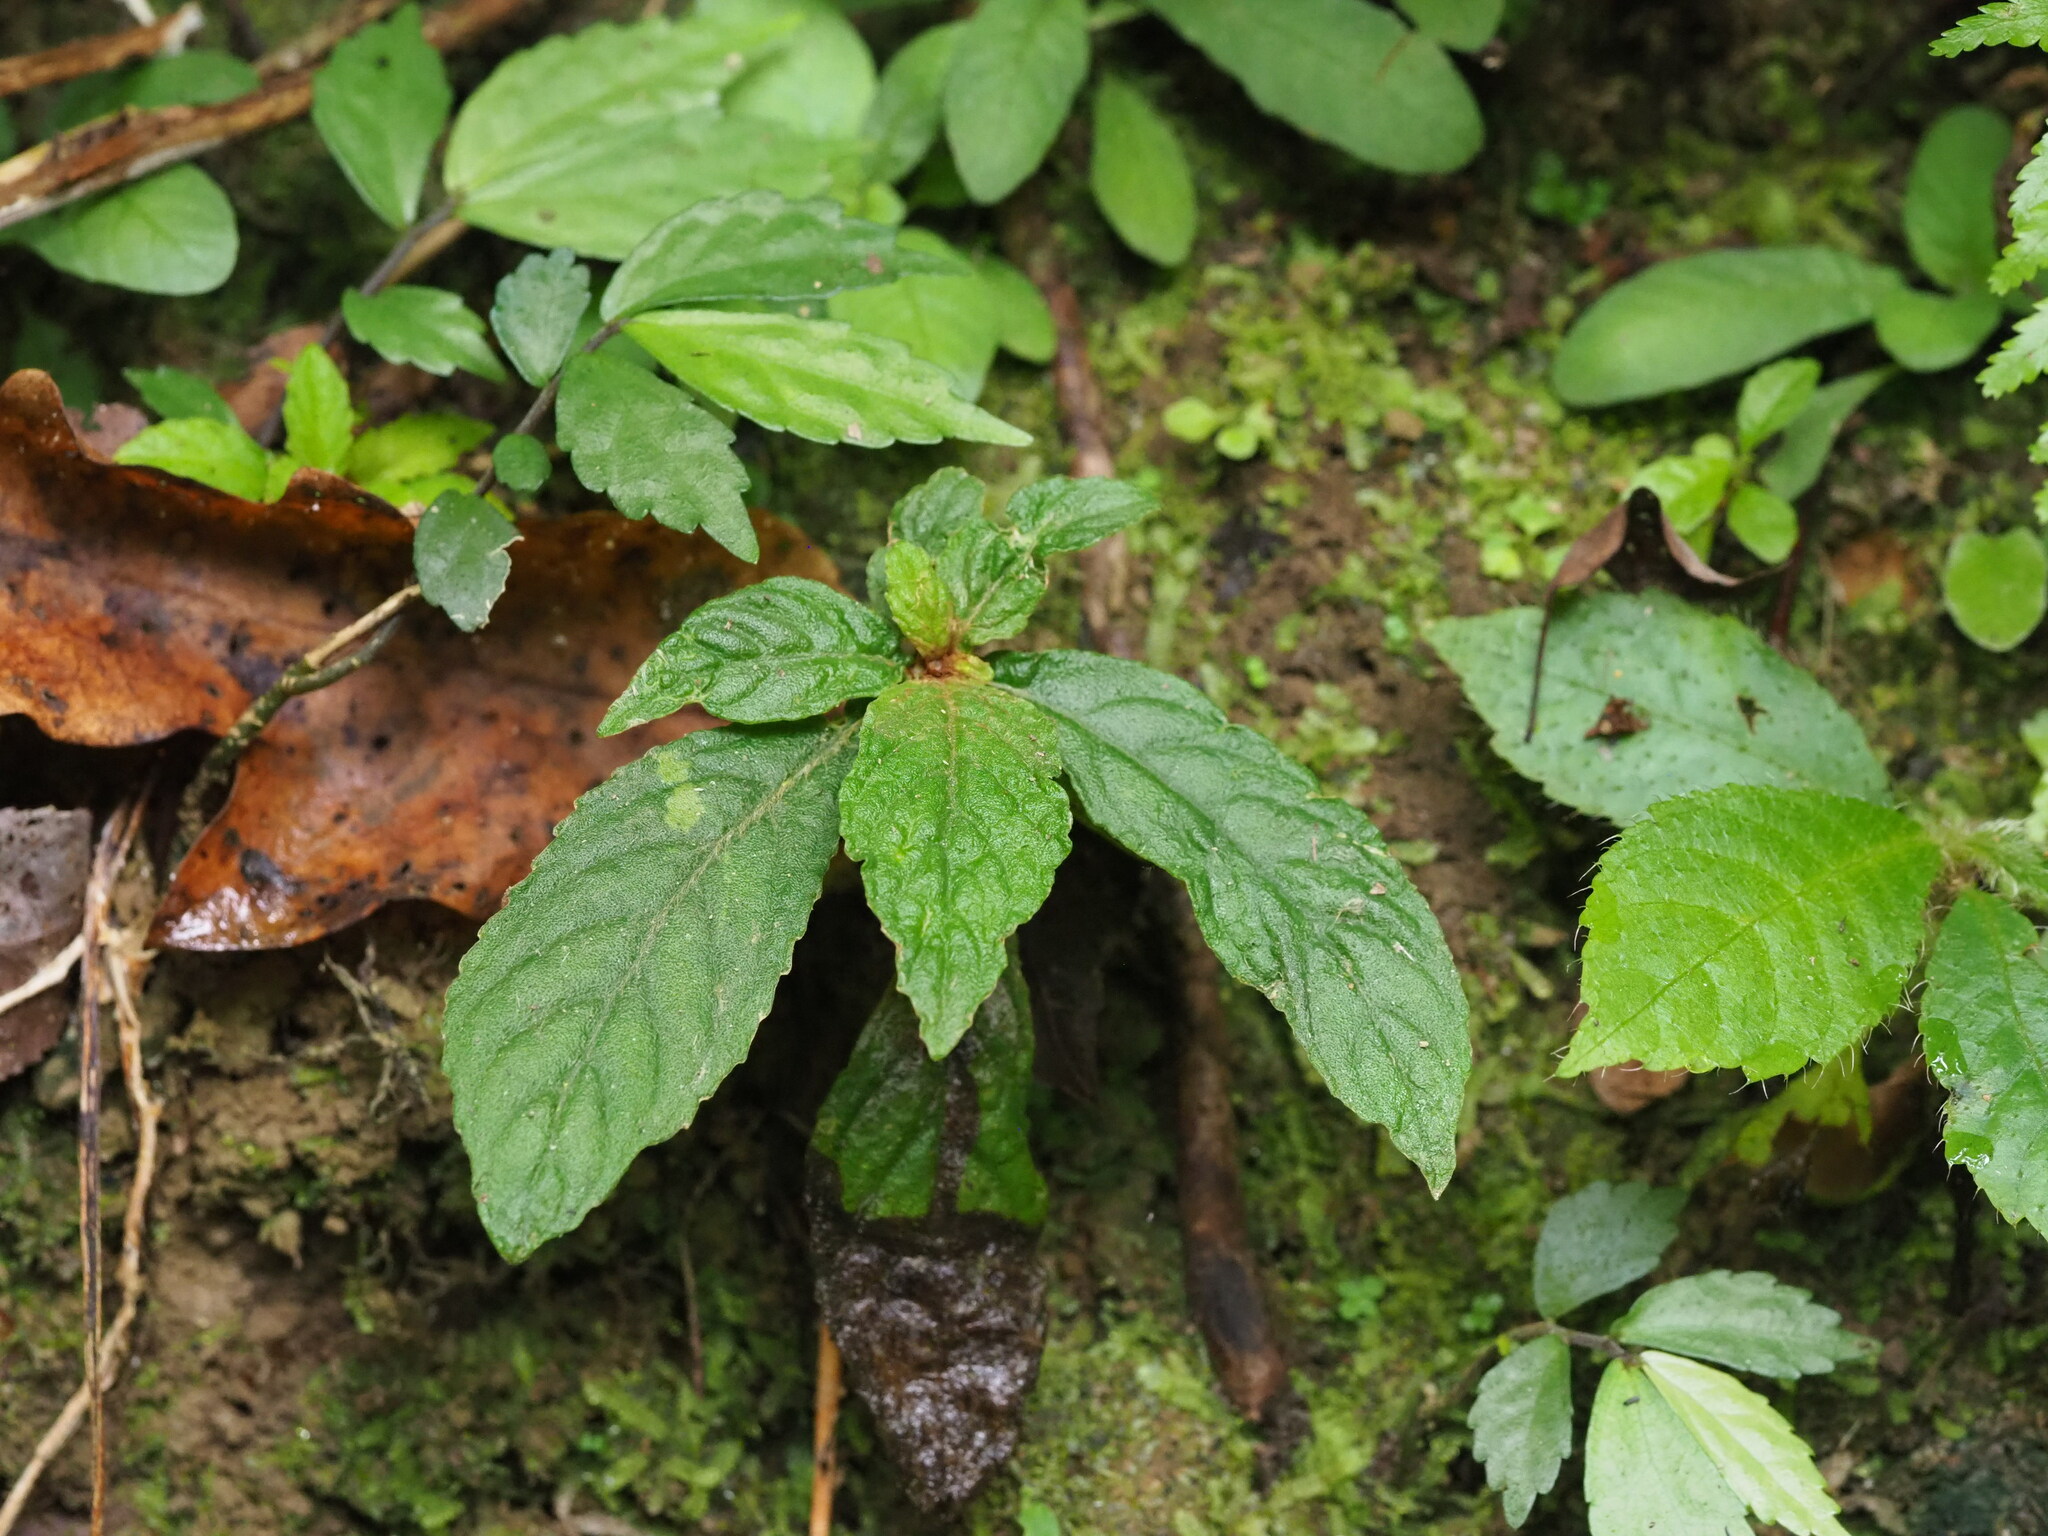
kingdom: Plantae
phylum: Tracheophyta
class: Magnoliopsida
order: Lamiales
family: Gesneriaceae
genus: Rhynchotechum
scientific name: Rhynchotechum discolor
